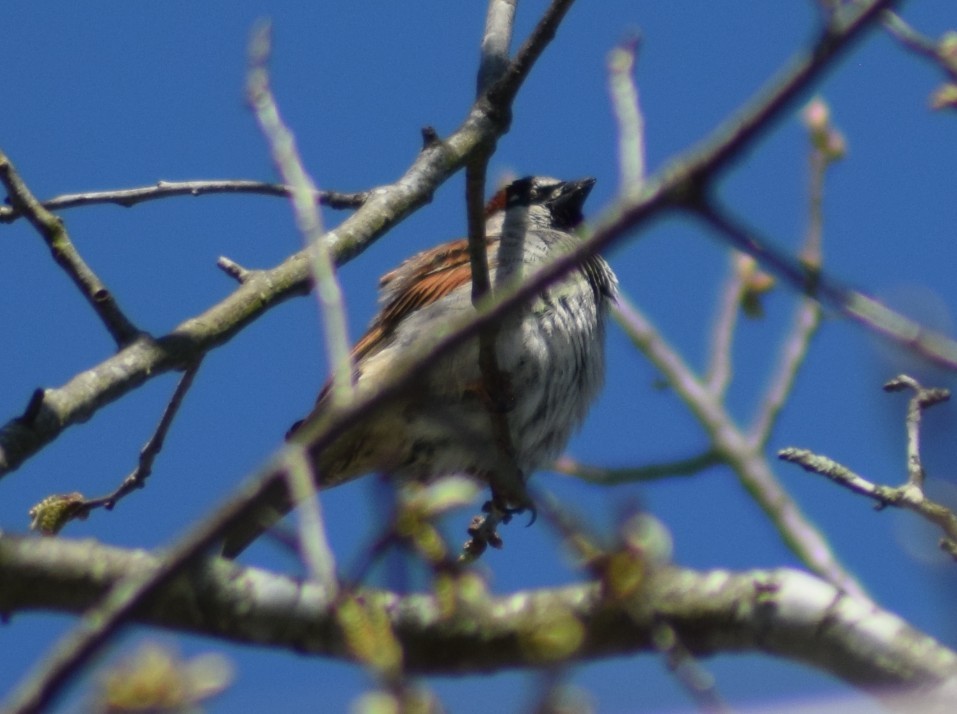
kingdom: Animalia
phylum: Chordata
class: Aves
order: Passeriformes
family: Passeridae
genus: Passer
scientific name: Passer domesticus
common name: House sparrow
